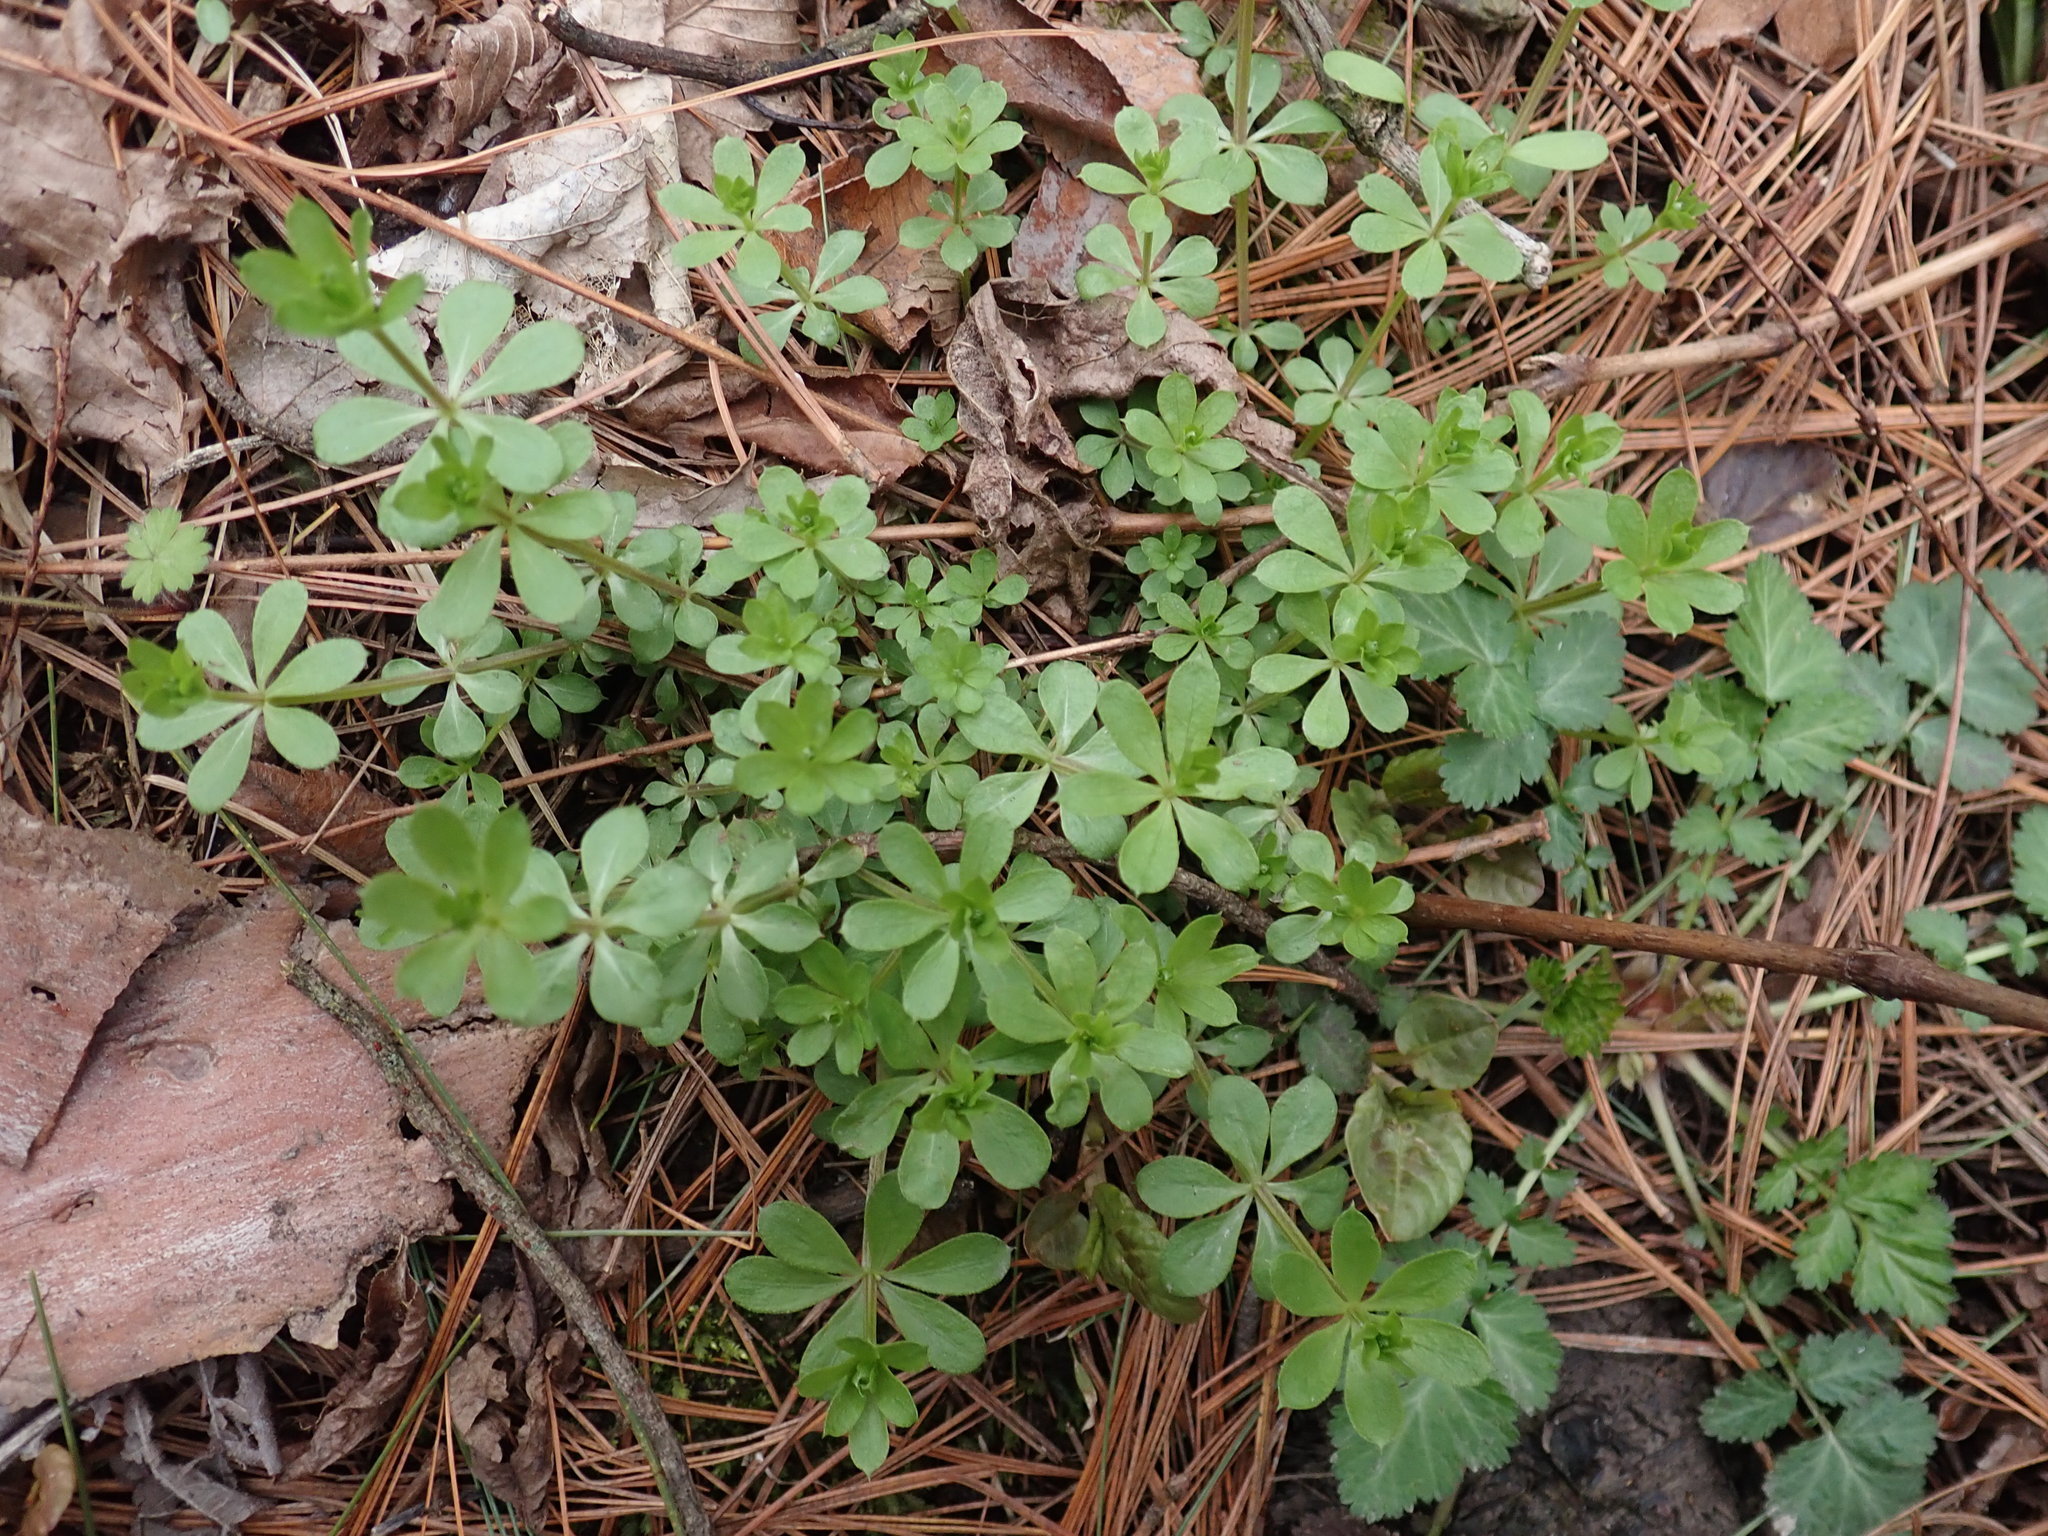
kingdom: Plantae
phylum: Tracheophyta
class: Magnoliopsida
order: Gentianales
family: Rubiaceae
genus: Galium
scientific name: Galium triflorum
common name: Fragrant bedstraw
